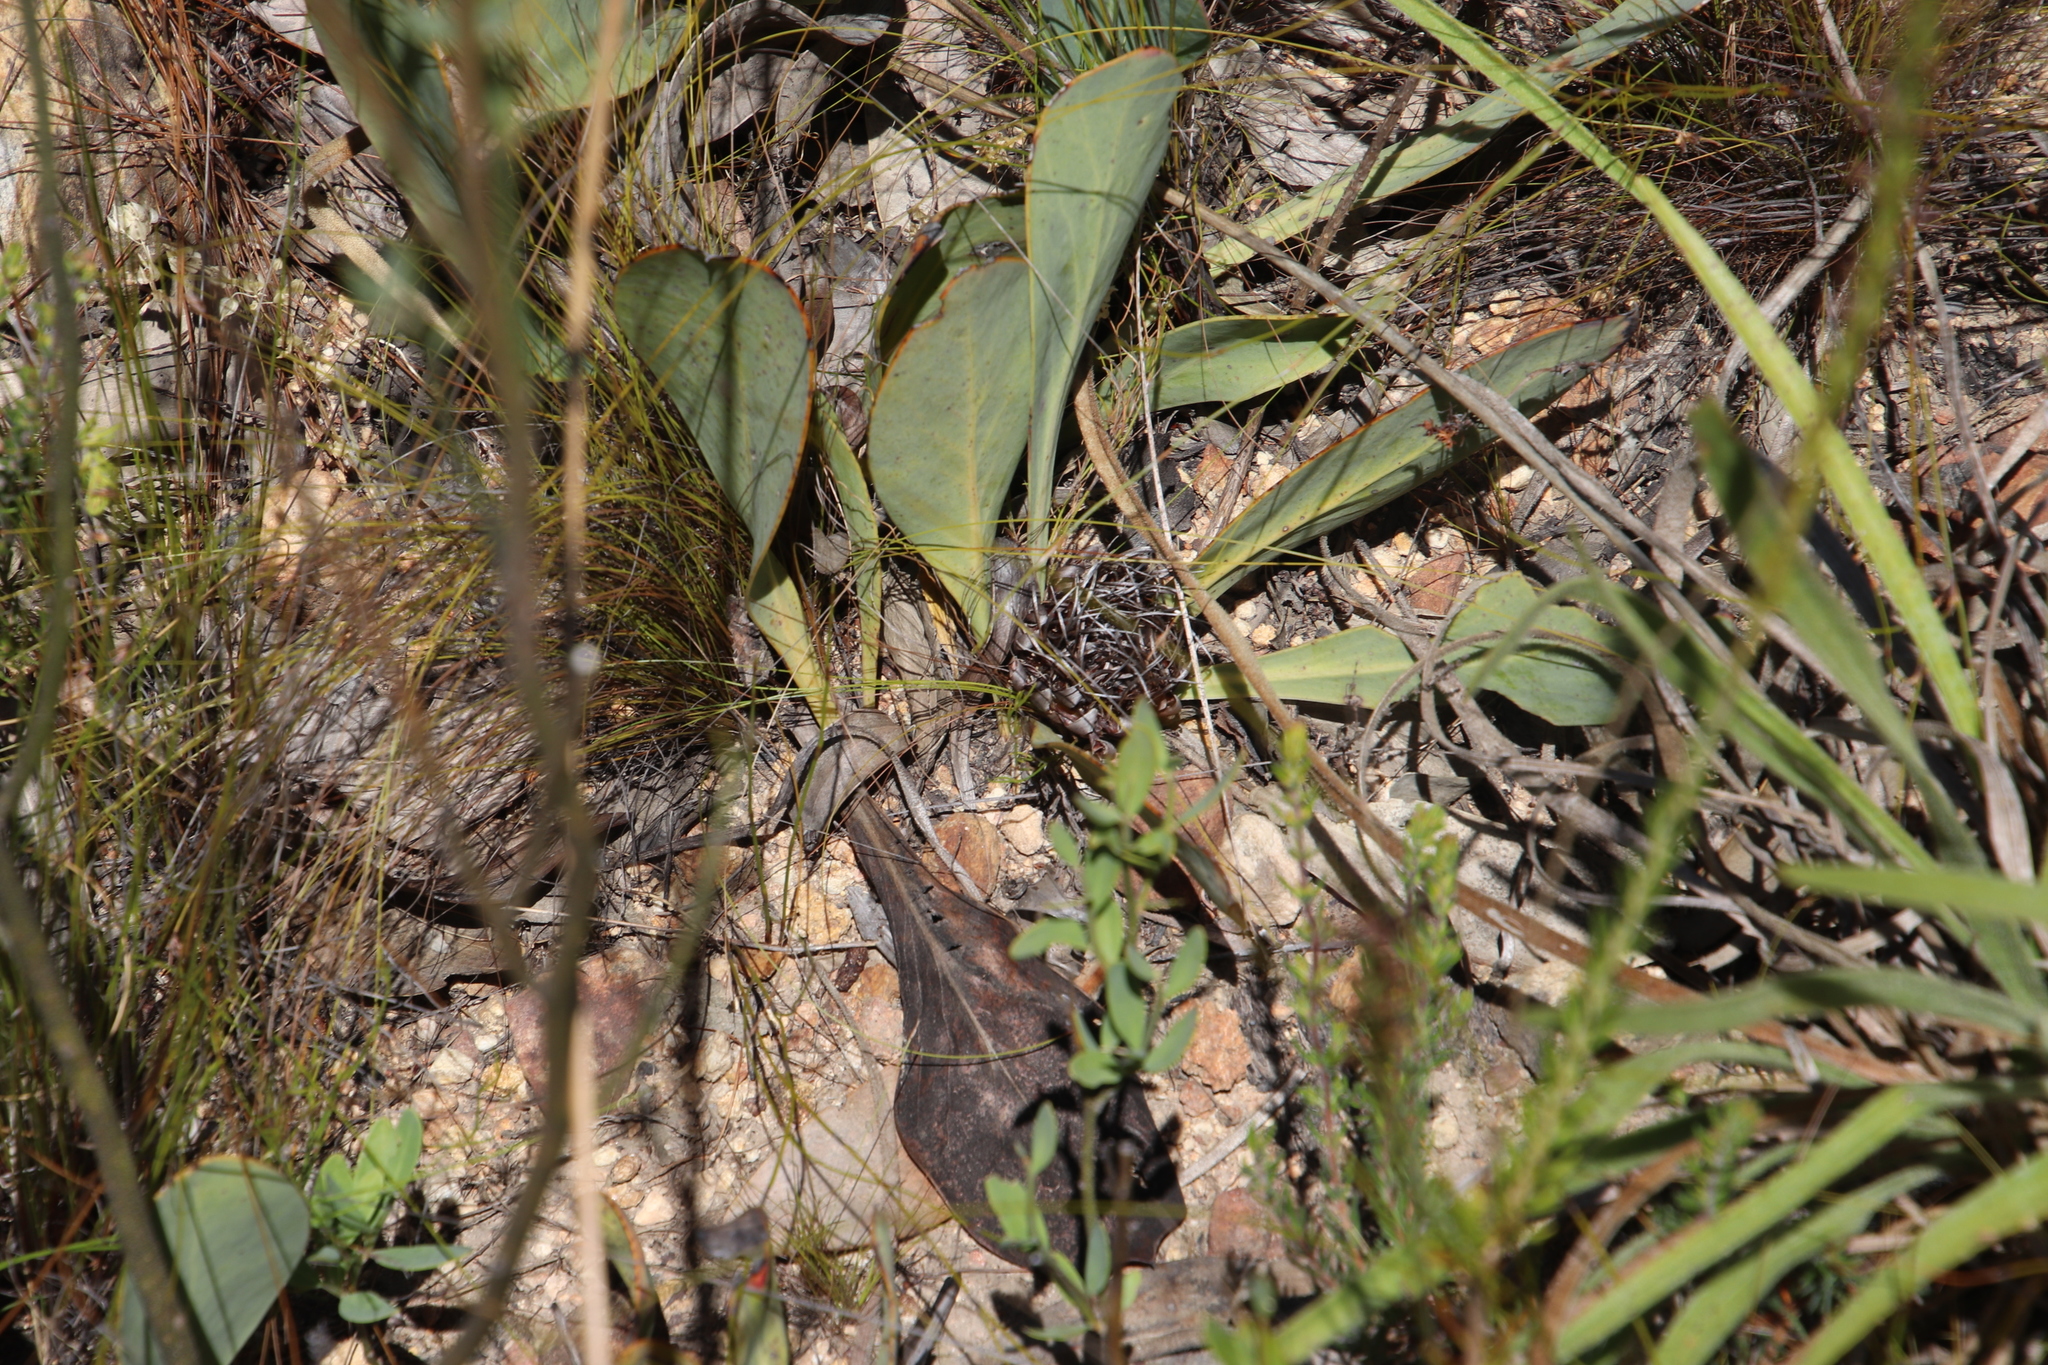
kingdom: Plantae
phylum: Tracheophyta
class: Magnoliopsida
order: Proteales
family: Proteaceae
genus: Protea
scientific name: Protea acaulos
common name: Common ground sugarbush
